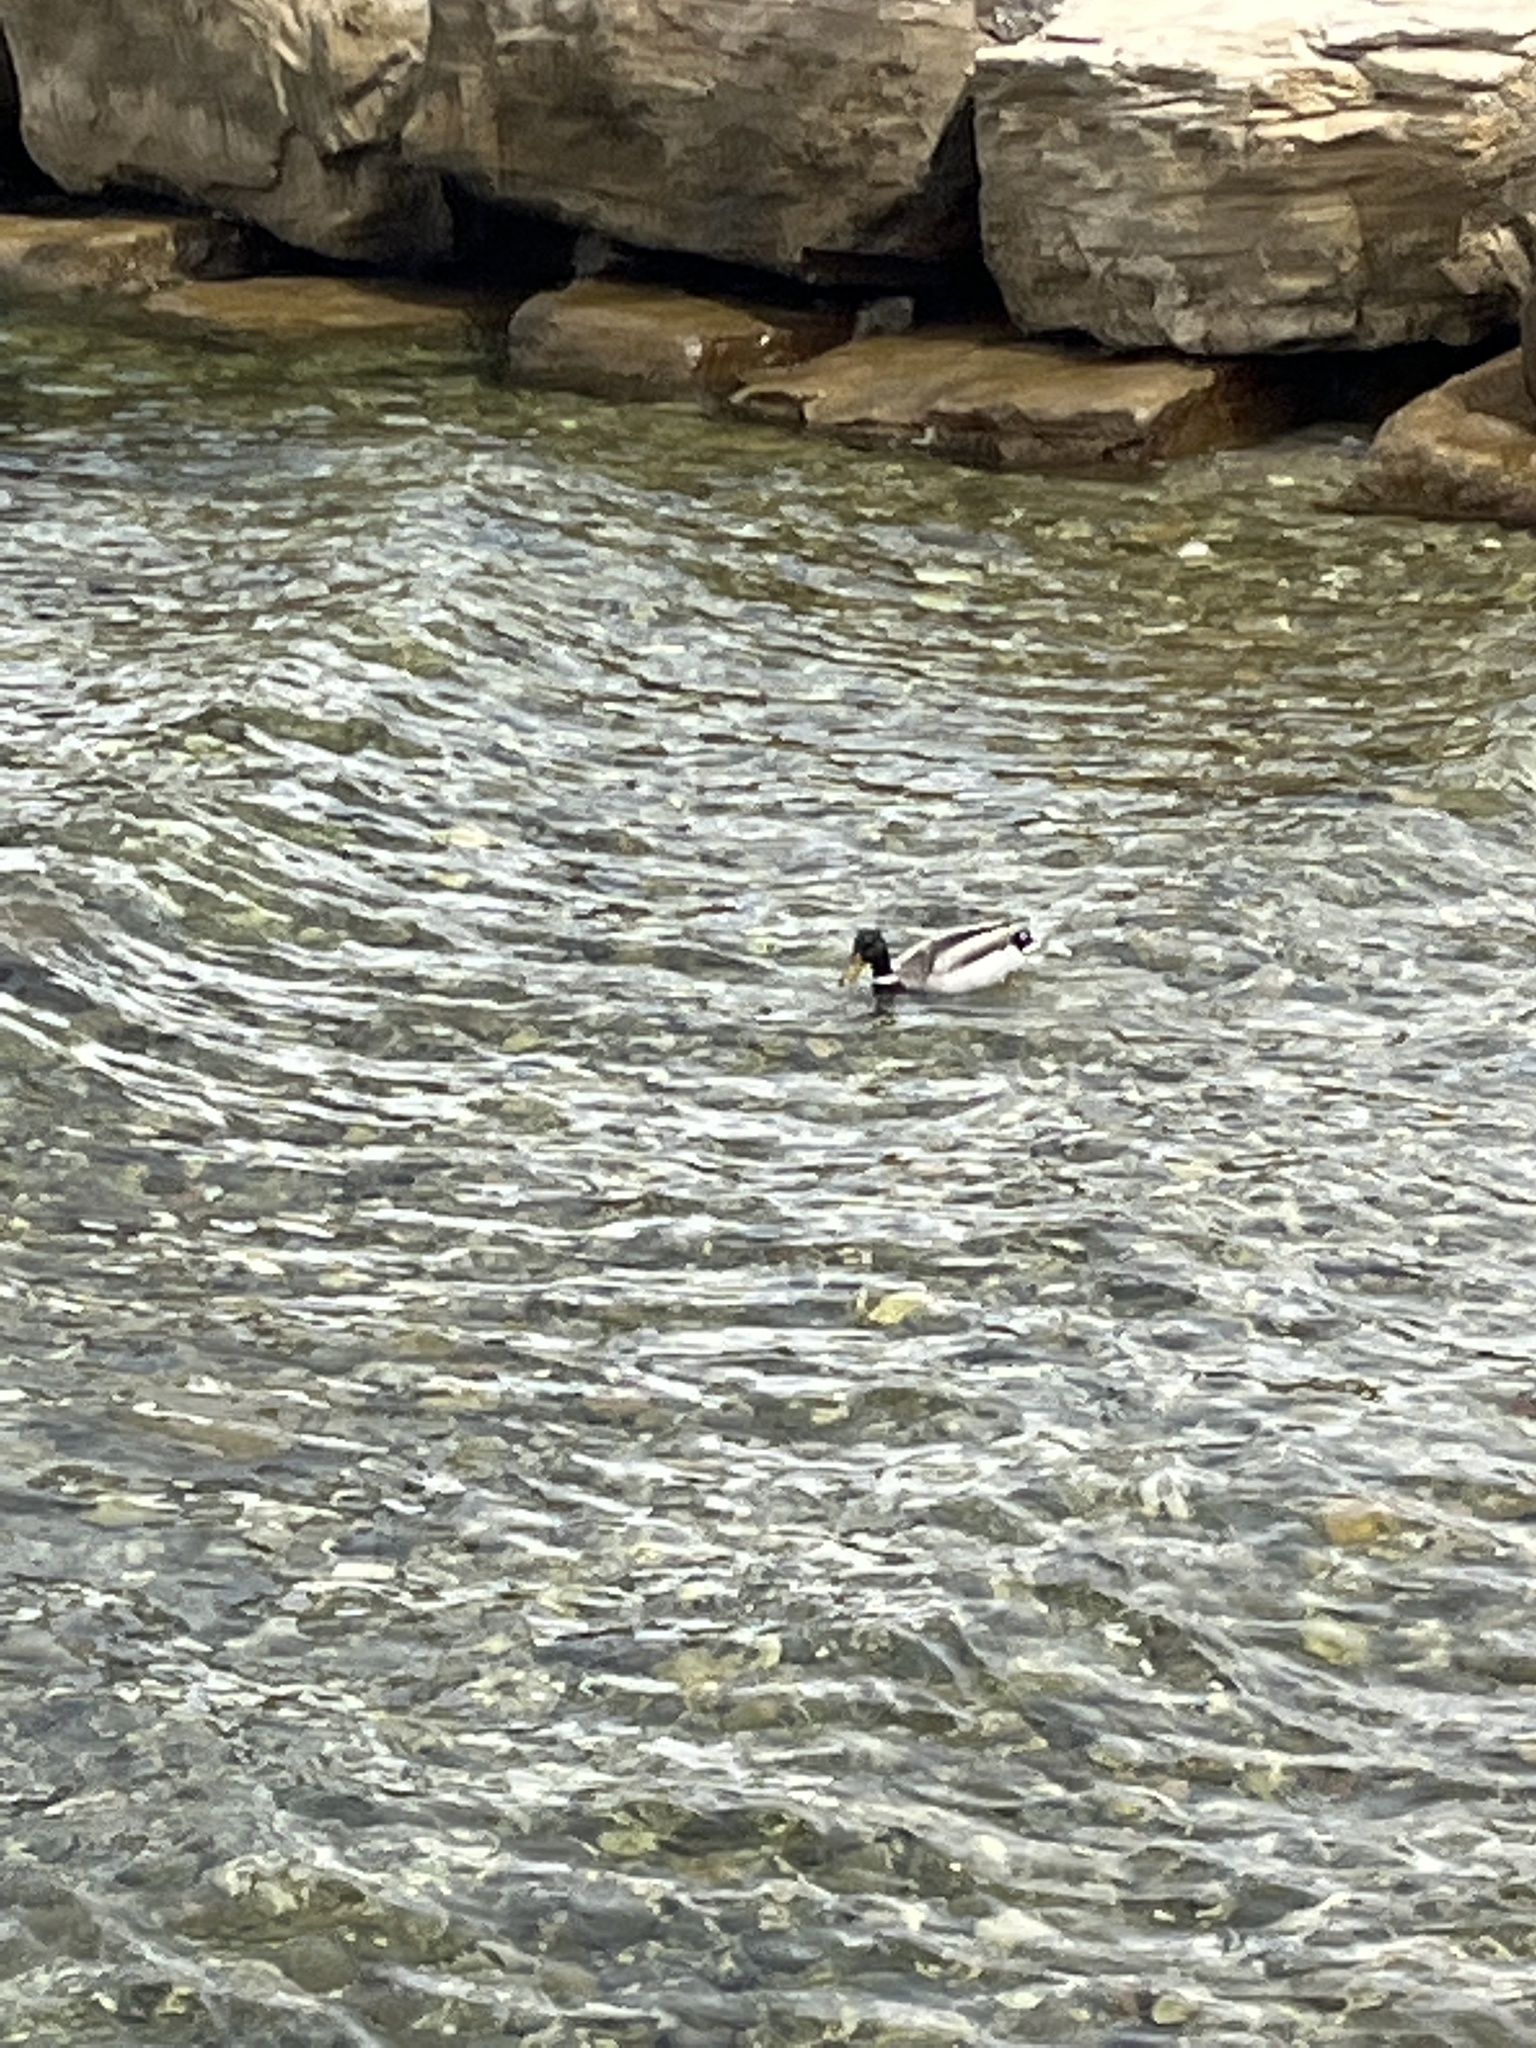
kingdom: Animalia
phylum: Chordata
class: Aves
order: Anseriformes
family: Anatidae
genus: Anas
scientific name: Anas platyrhynchos
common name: Mallard
